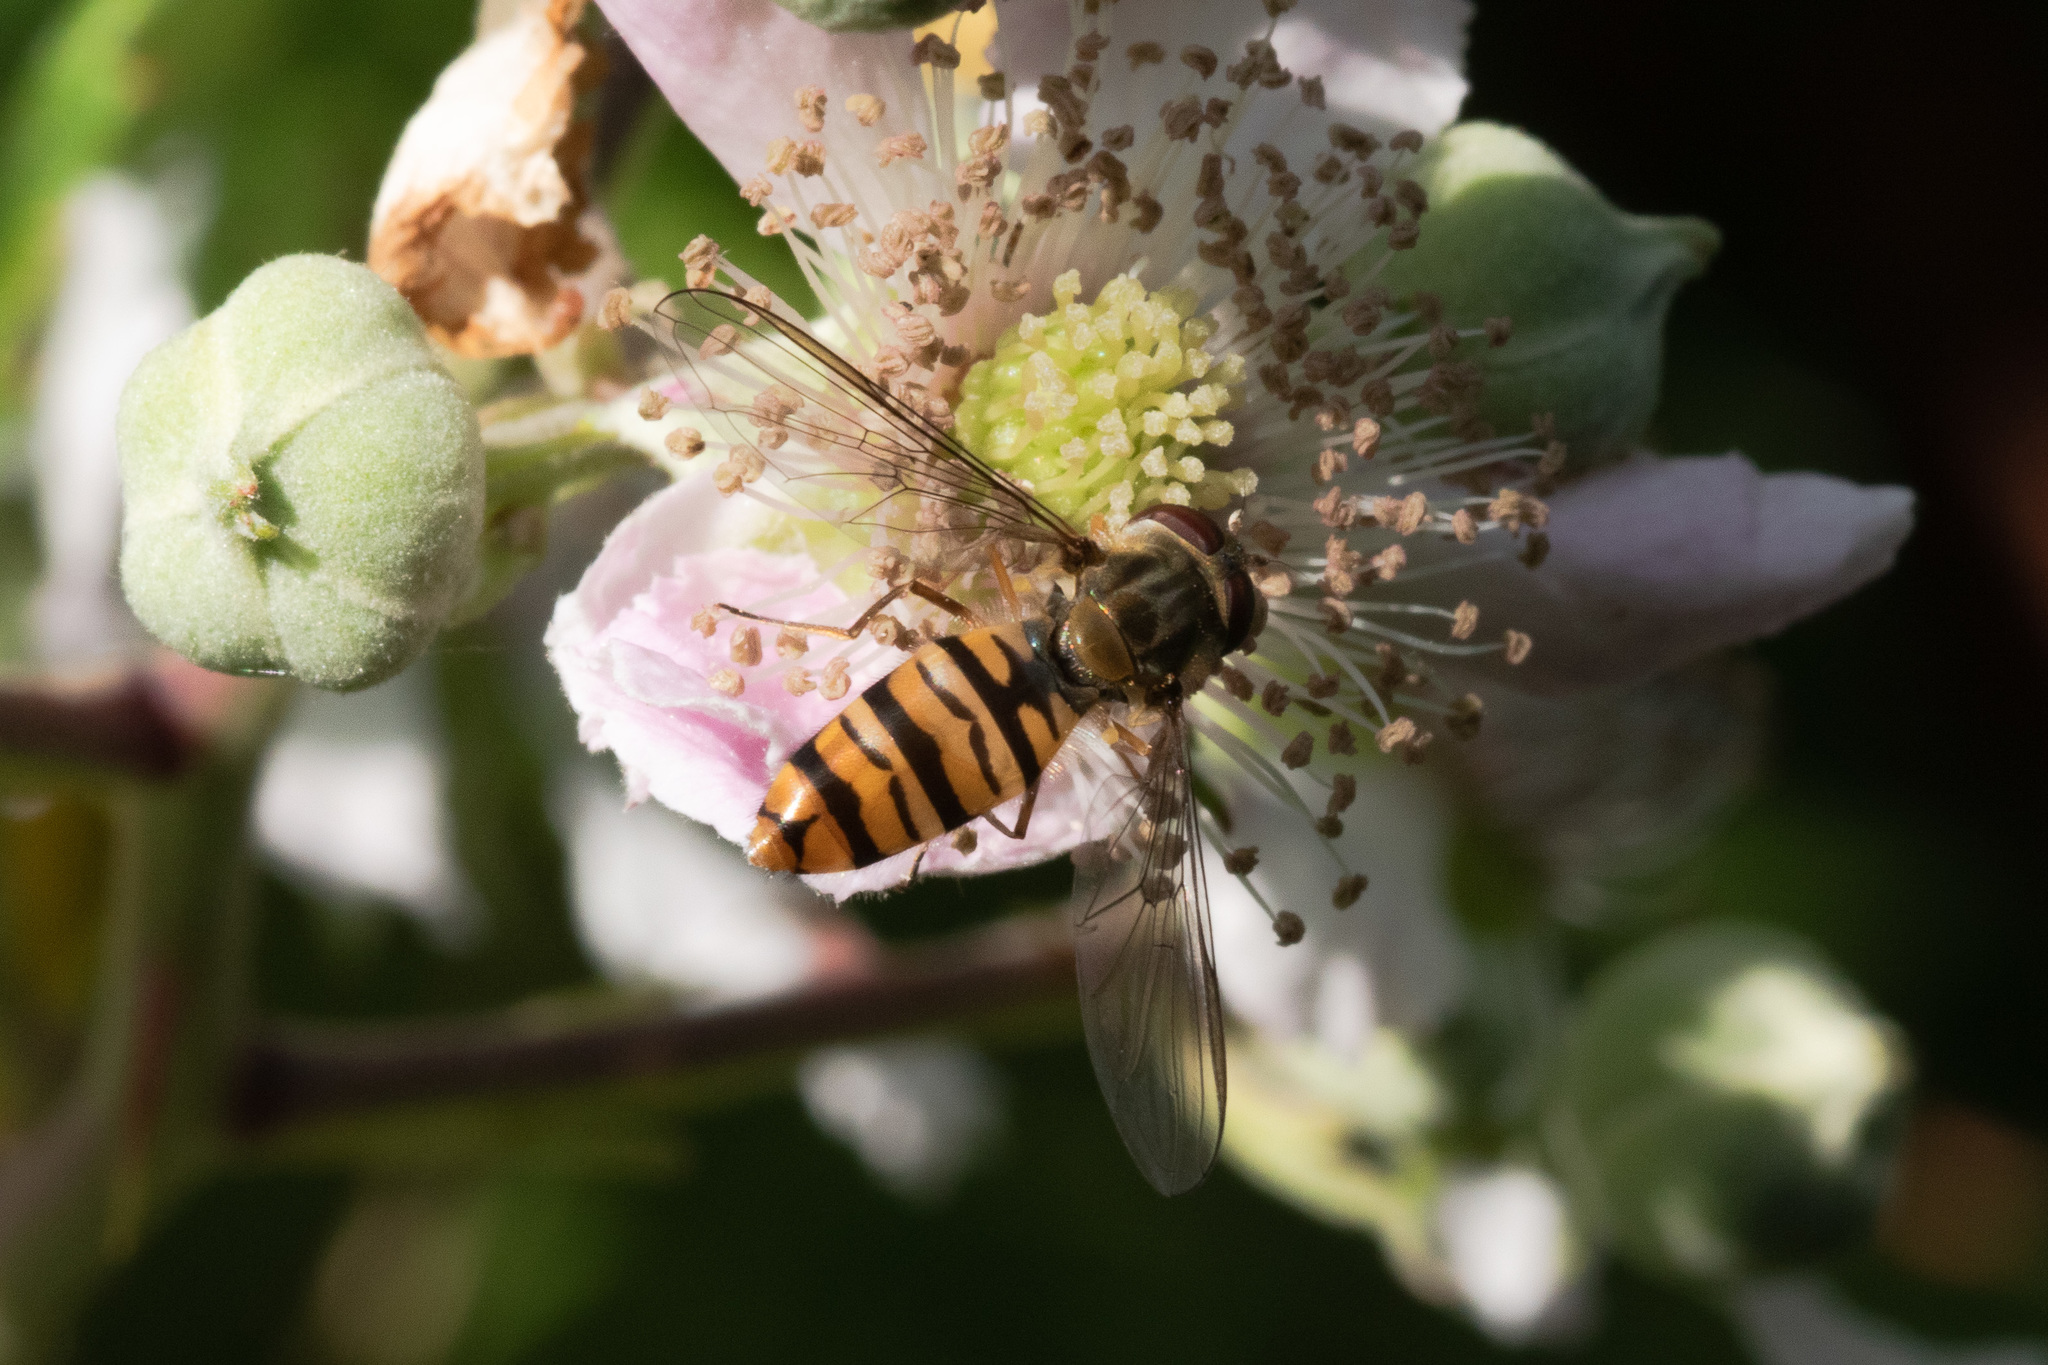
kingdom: Animalia
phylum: Arthropoda
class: Insecta
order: Diptera
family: Syrphidae
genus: Episyrphus
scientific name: Episyrphus balteatus
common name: Marmalade hoverfly
